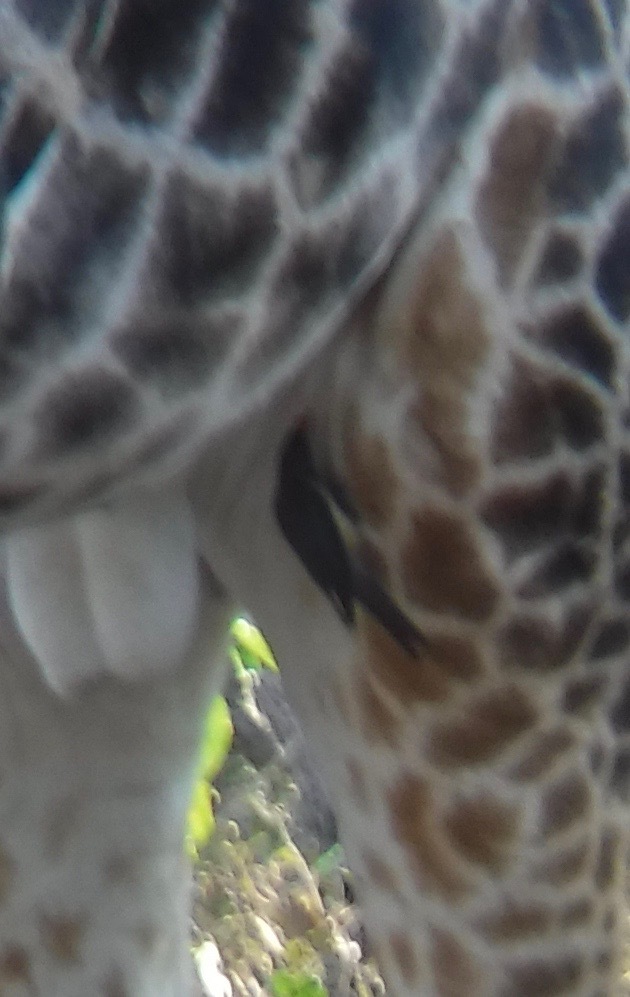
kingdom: Animalia
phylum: Chordata
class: Aves
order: Passeriformes
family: Buphagidae
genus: Buphagus
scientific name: Buphagus erythrorhynchus
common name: Red-billed oxpecker
